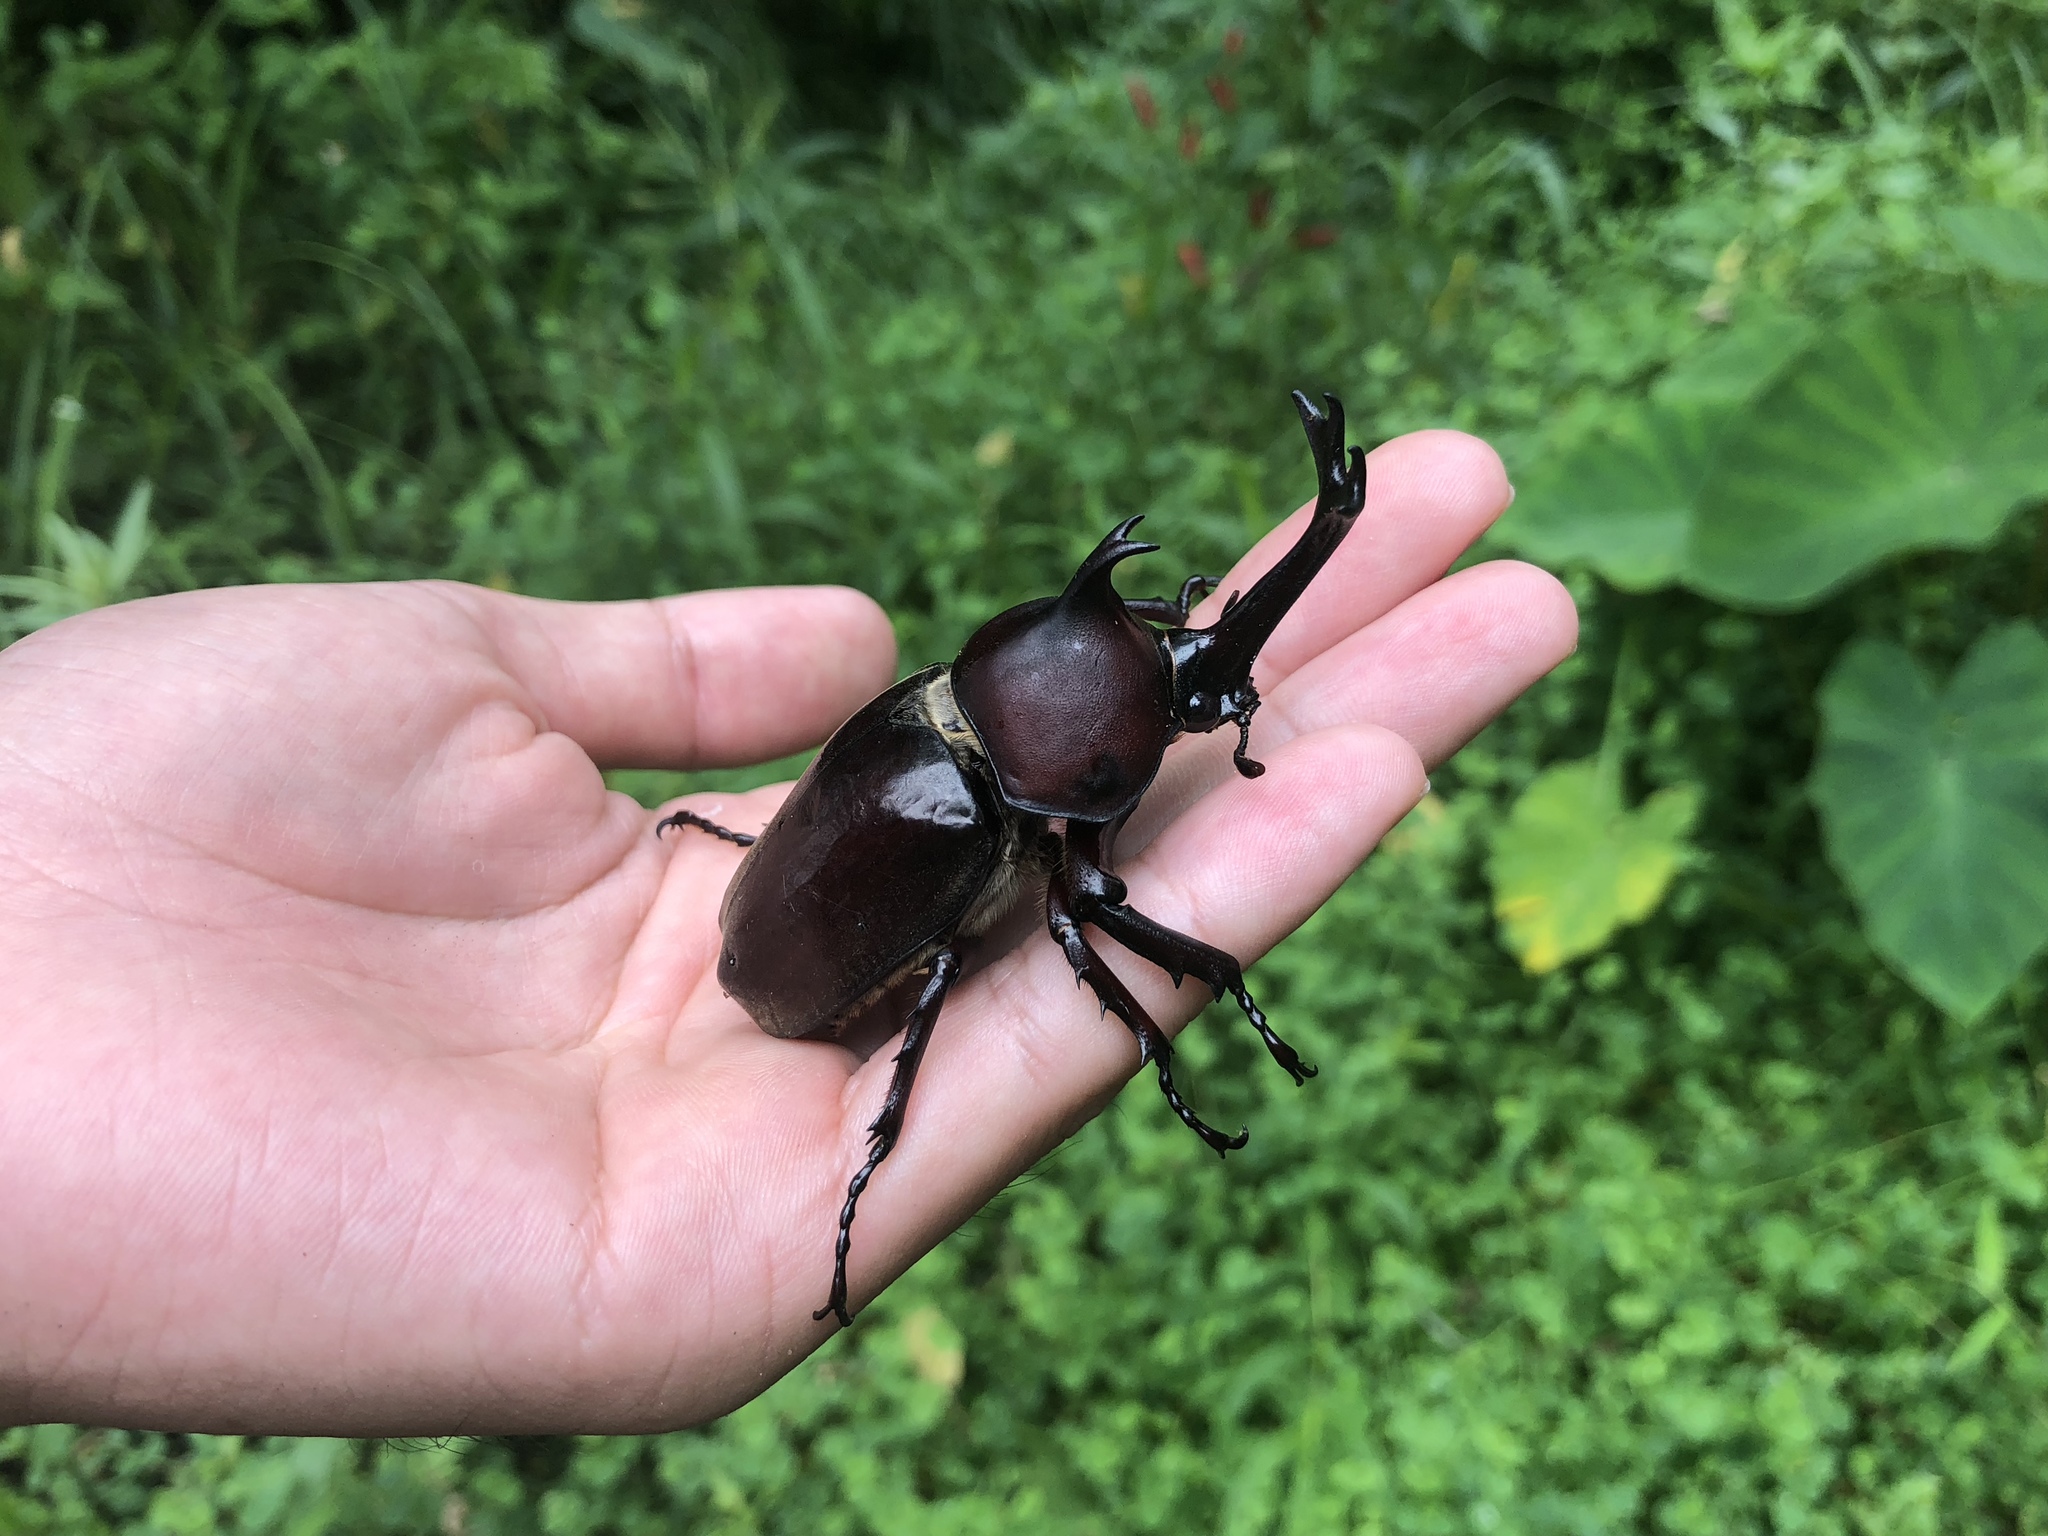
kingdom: Animalia
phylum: Arthropoda
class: Insecta
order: Coleoptera
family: Scarabaeidae
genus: Trypoxylus
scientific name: Trypoxylus dichotomus
